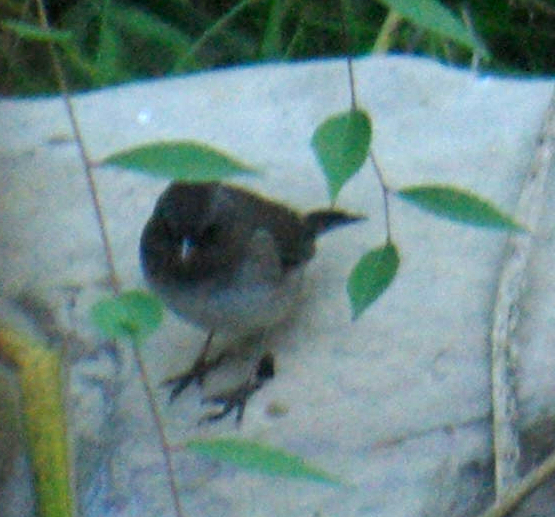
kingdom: Animalia
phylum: Chordata
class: Aves
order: Passeriformes
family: Passerellidae
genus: Junco
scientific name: Junco hyemalis
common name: Dark-eyed junco
